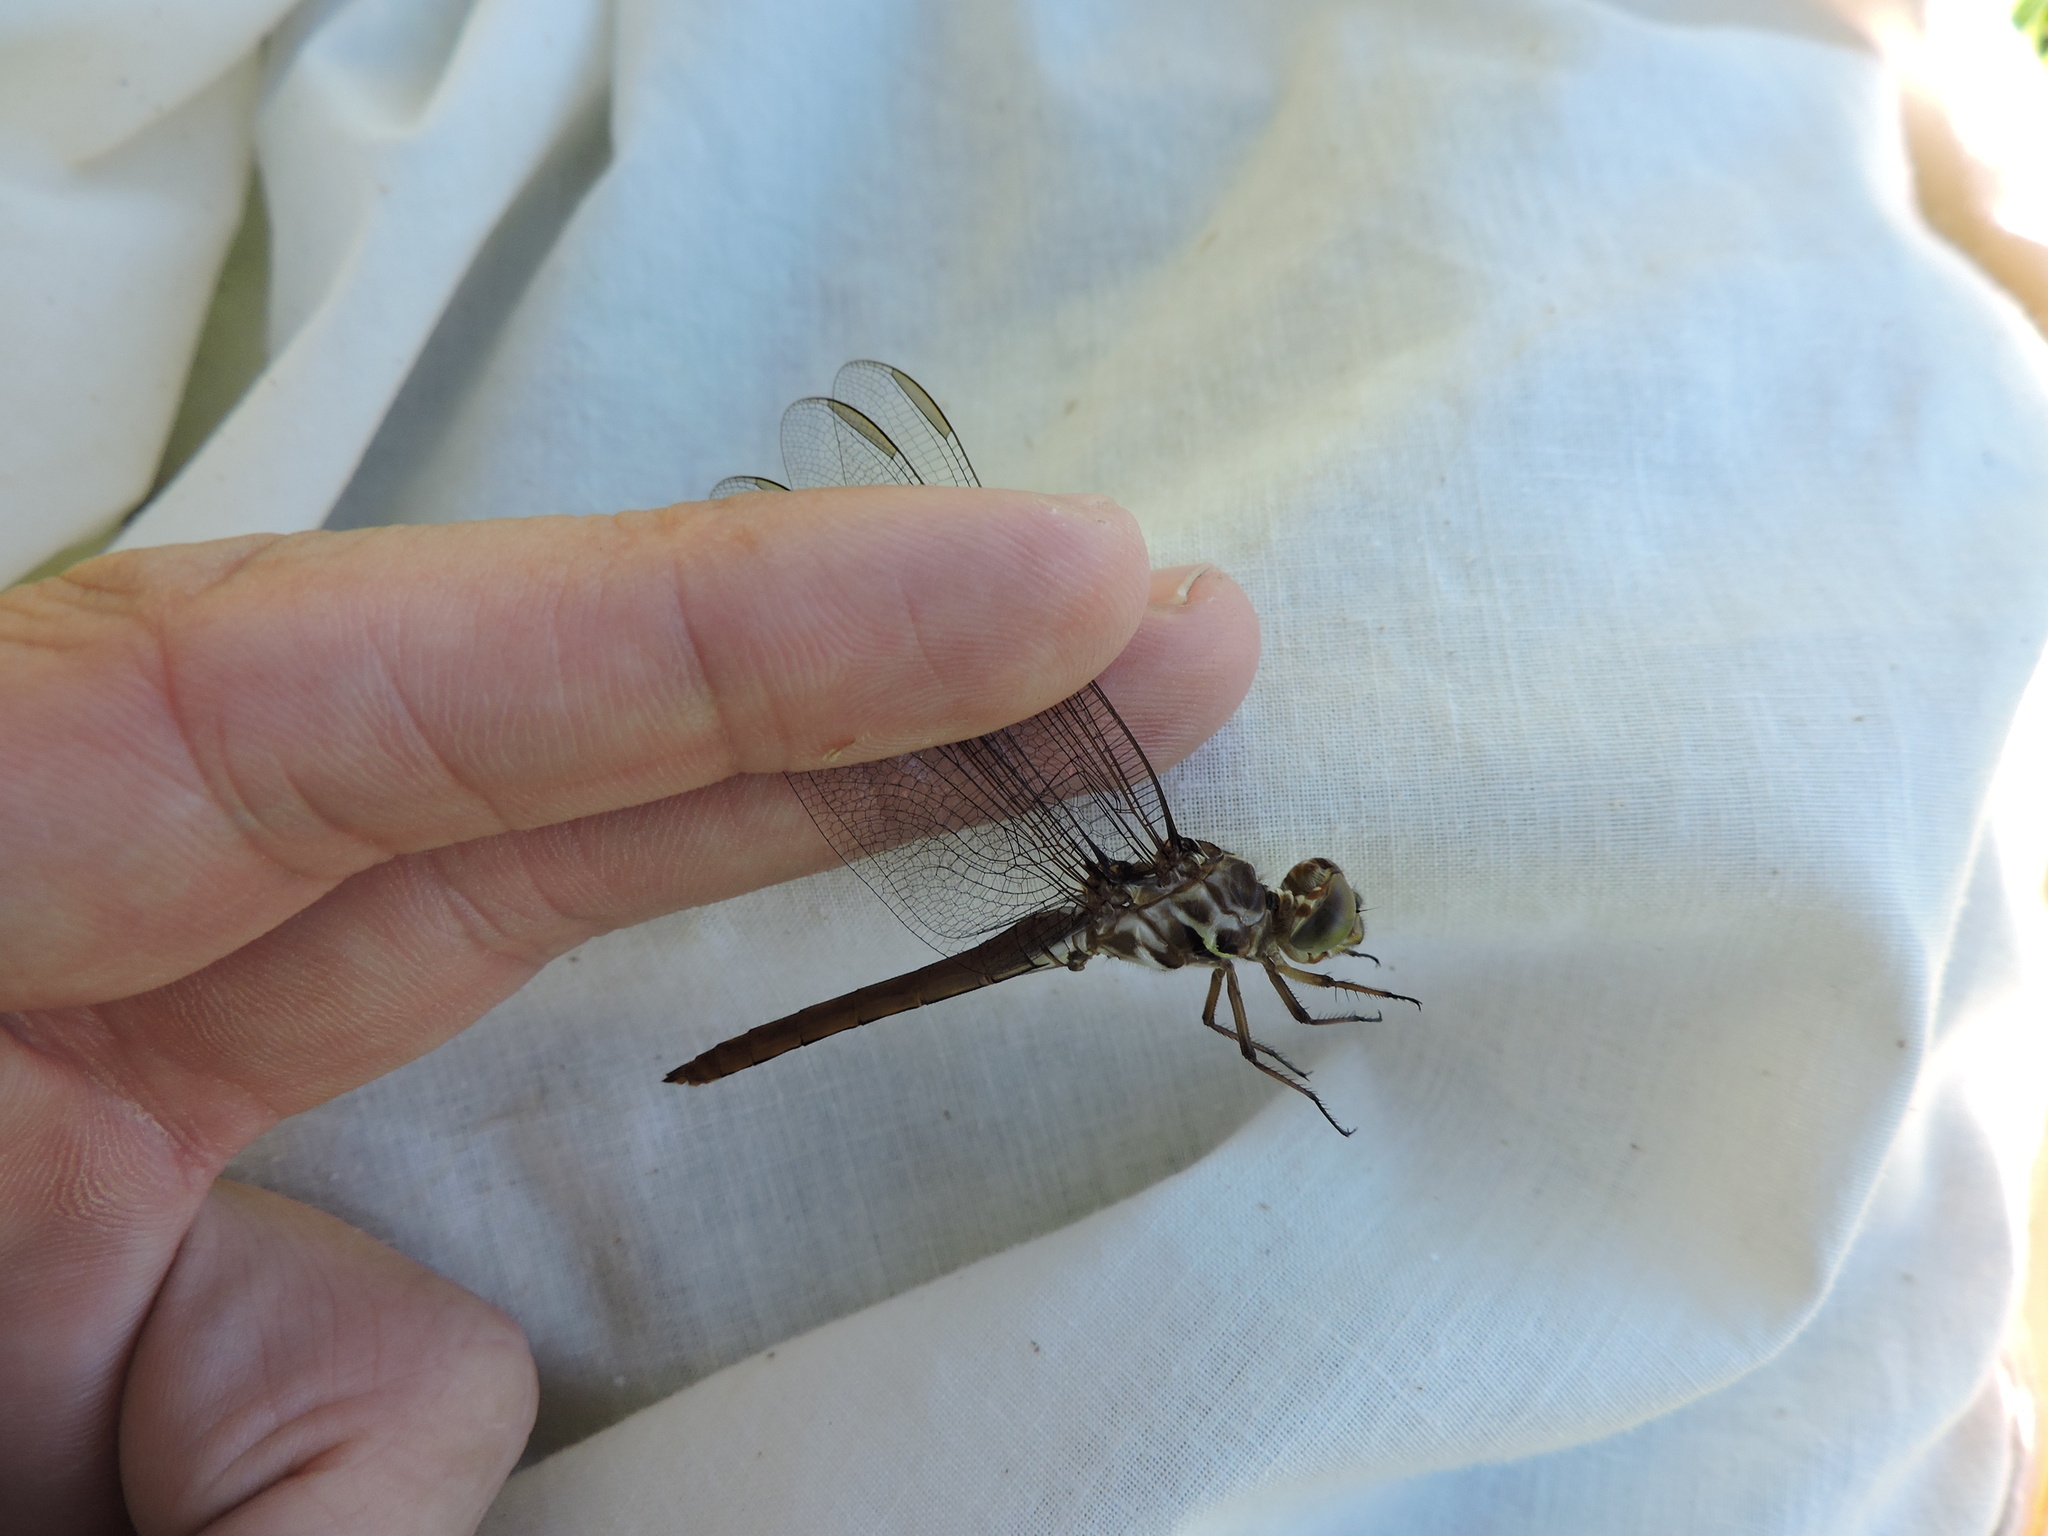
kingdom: Animalia
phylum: Arthropoda
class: Insecta
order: Odonata
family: Libellulidae
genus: Orthemis
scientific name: Orthemis ferruginea
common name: Roseate skimmer
